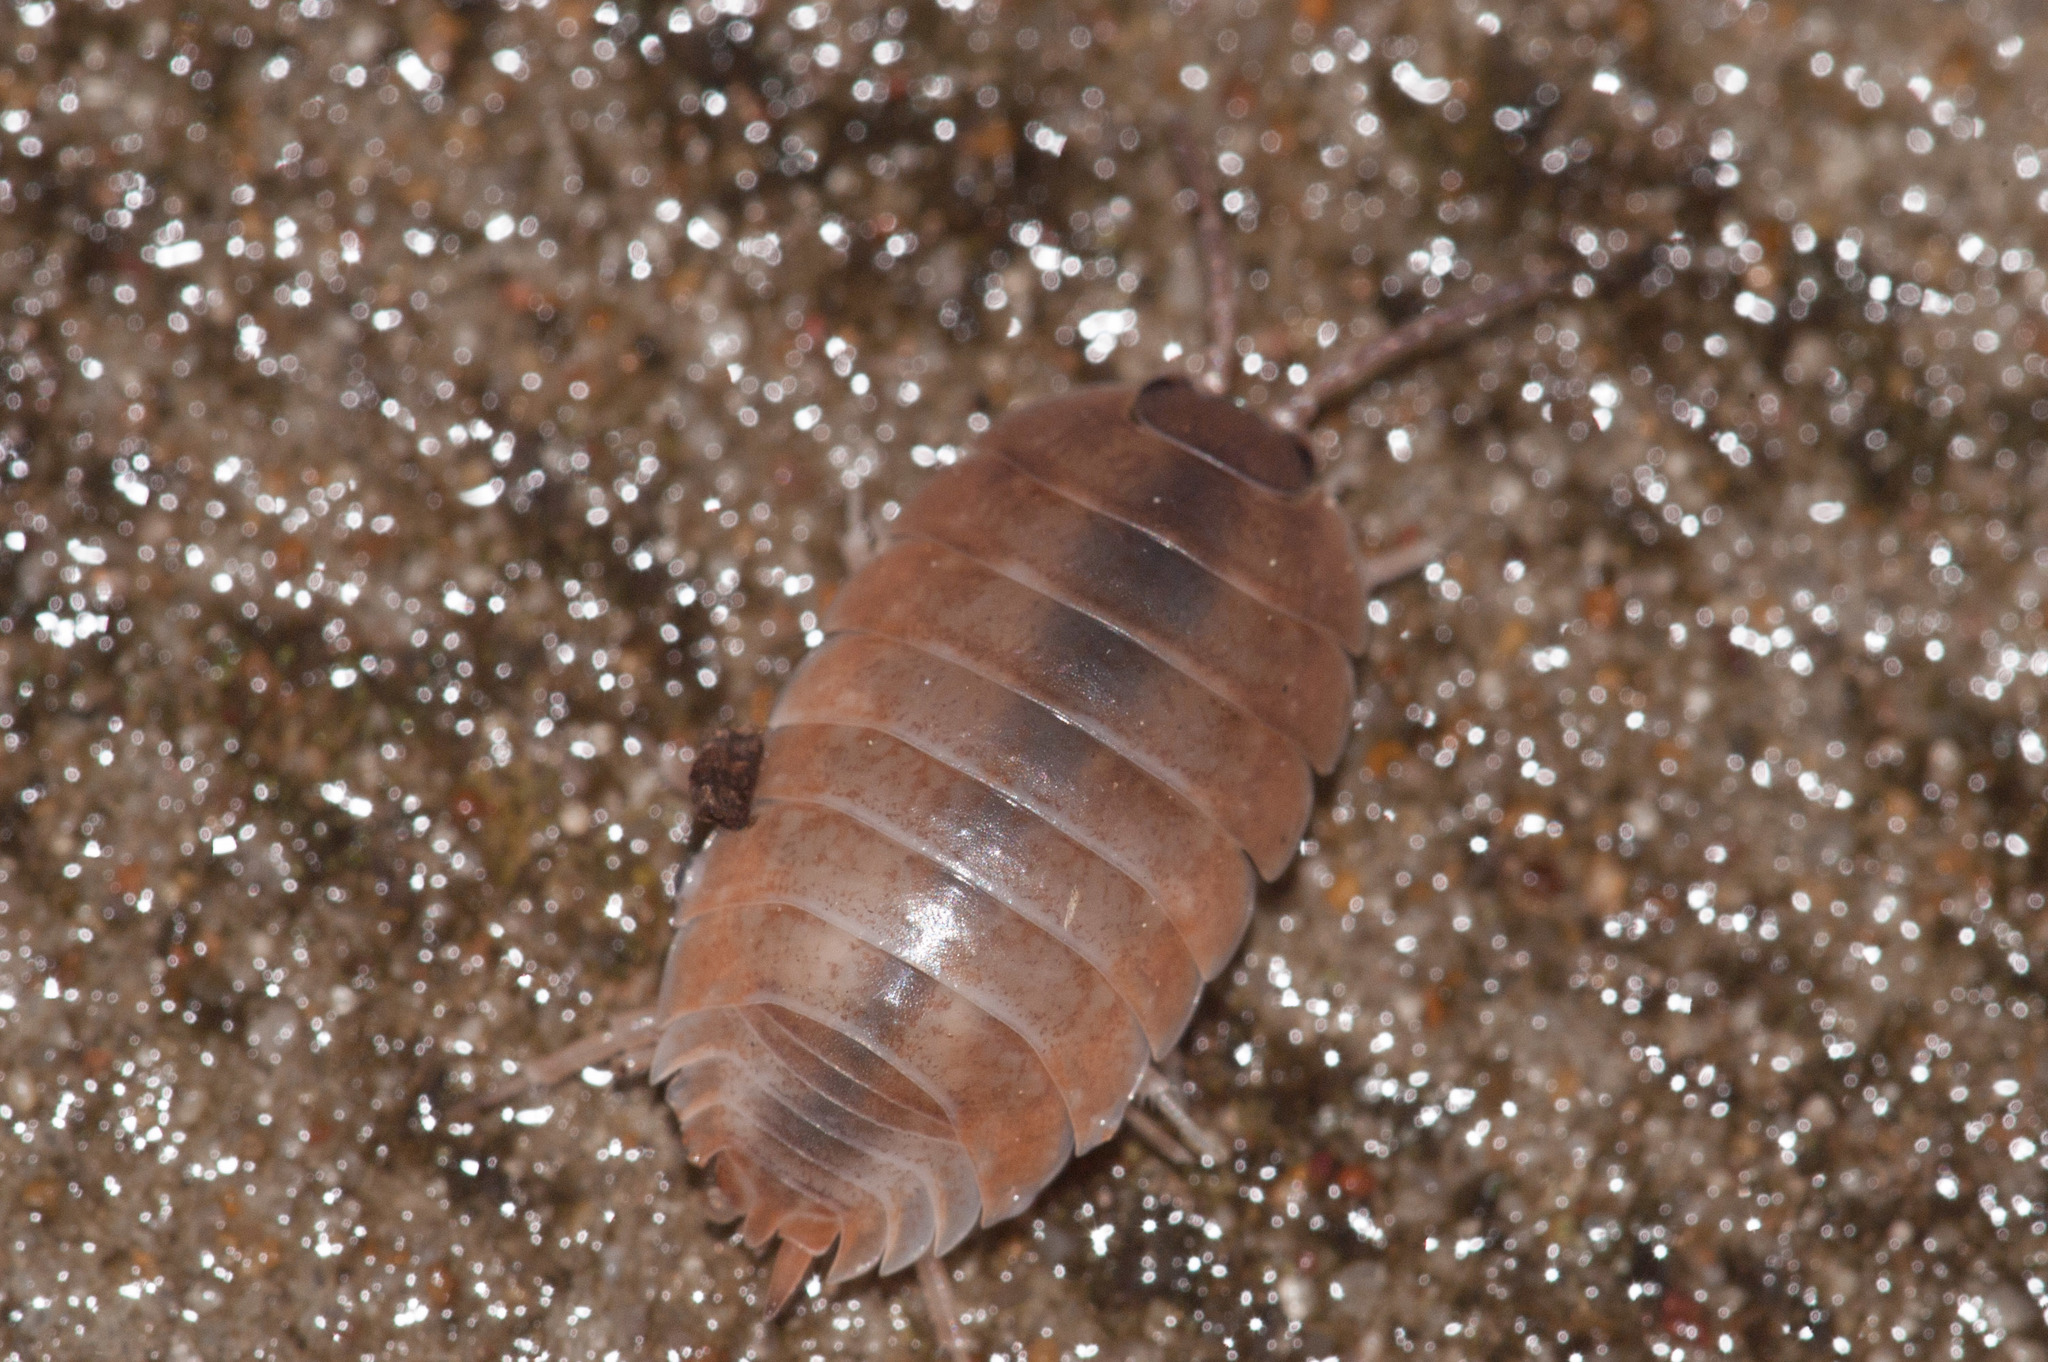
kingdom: Animalia
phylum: Arthropoda
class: Malacostraca
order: Isopoda
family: Porcellionidae
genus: Porcellio
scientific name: Porcellio laevis
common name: Swift woodlouse
